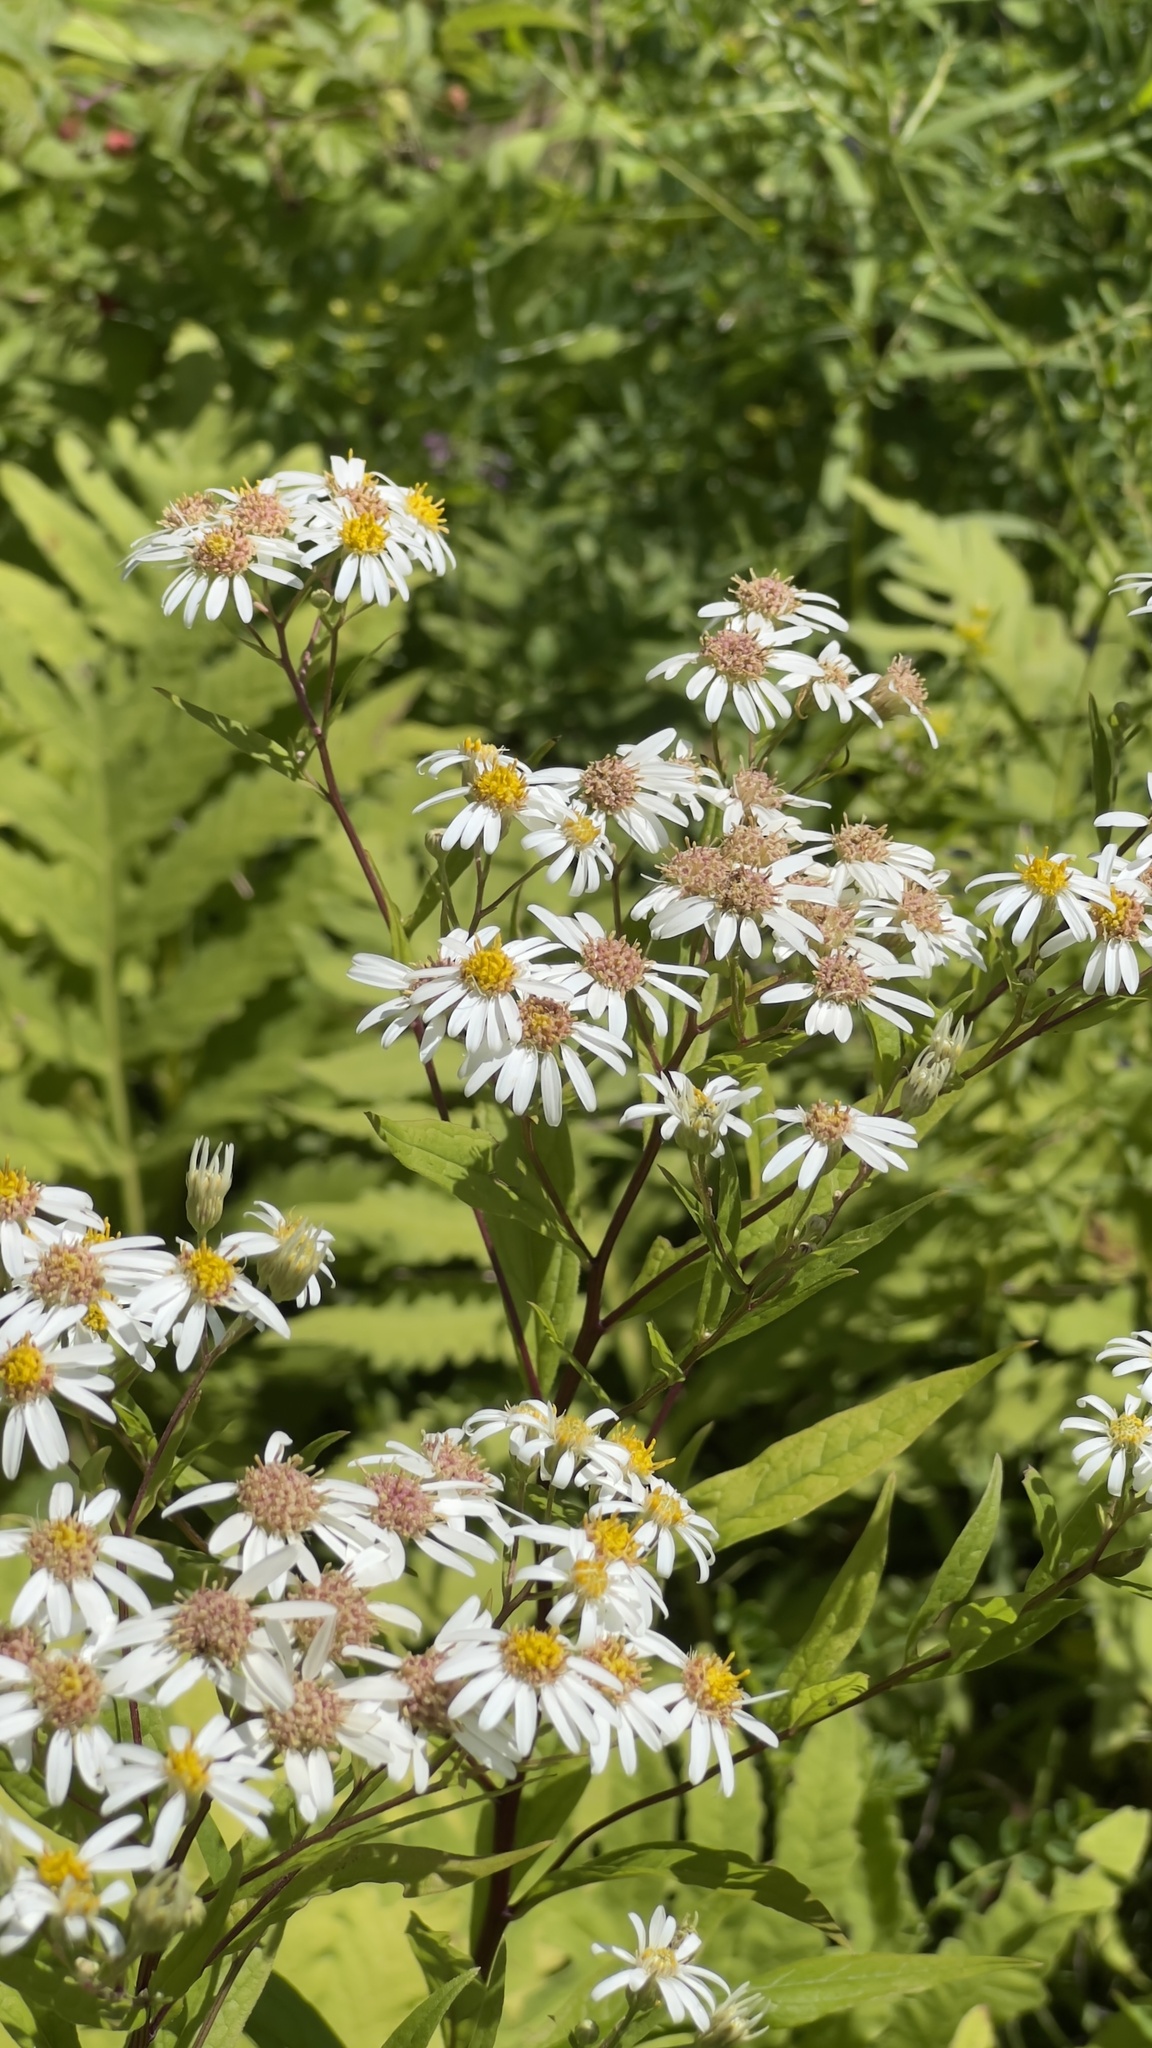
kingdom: Plantae
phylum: Tracheophyta
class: Magnoliopsida
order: Asterales
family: Asteraceae
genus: Doellingeria
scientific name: Doellingeria umbellata
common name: Flat-top white aster
